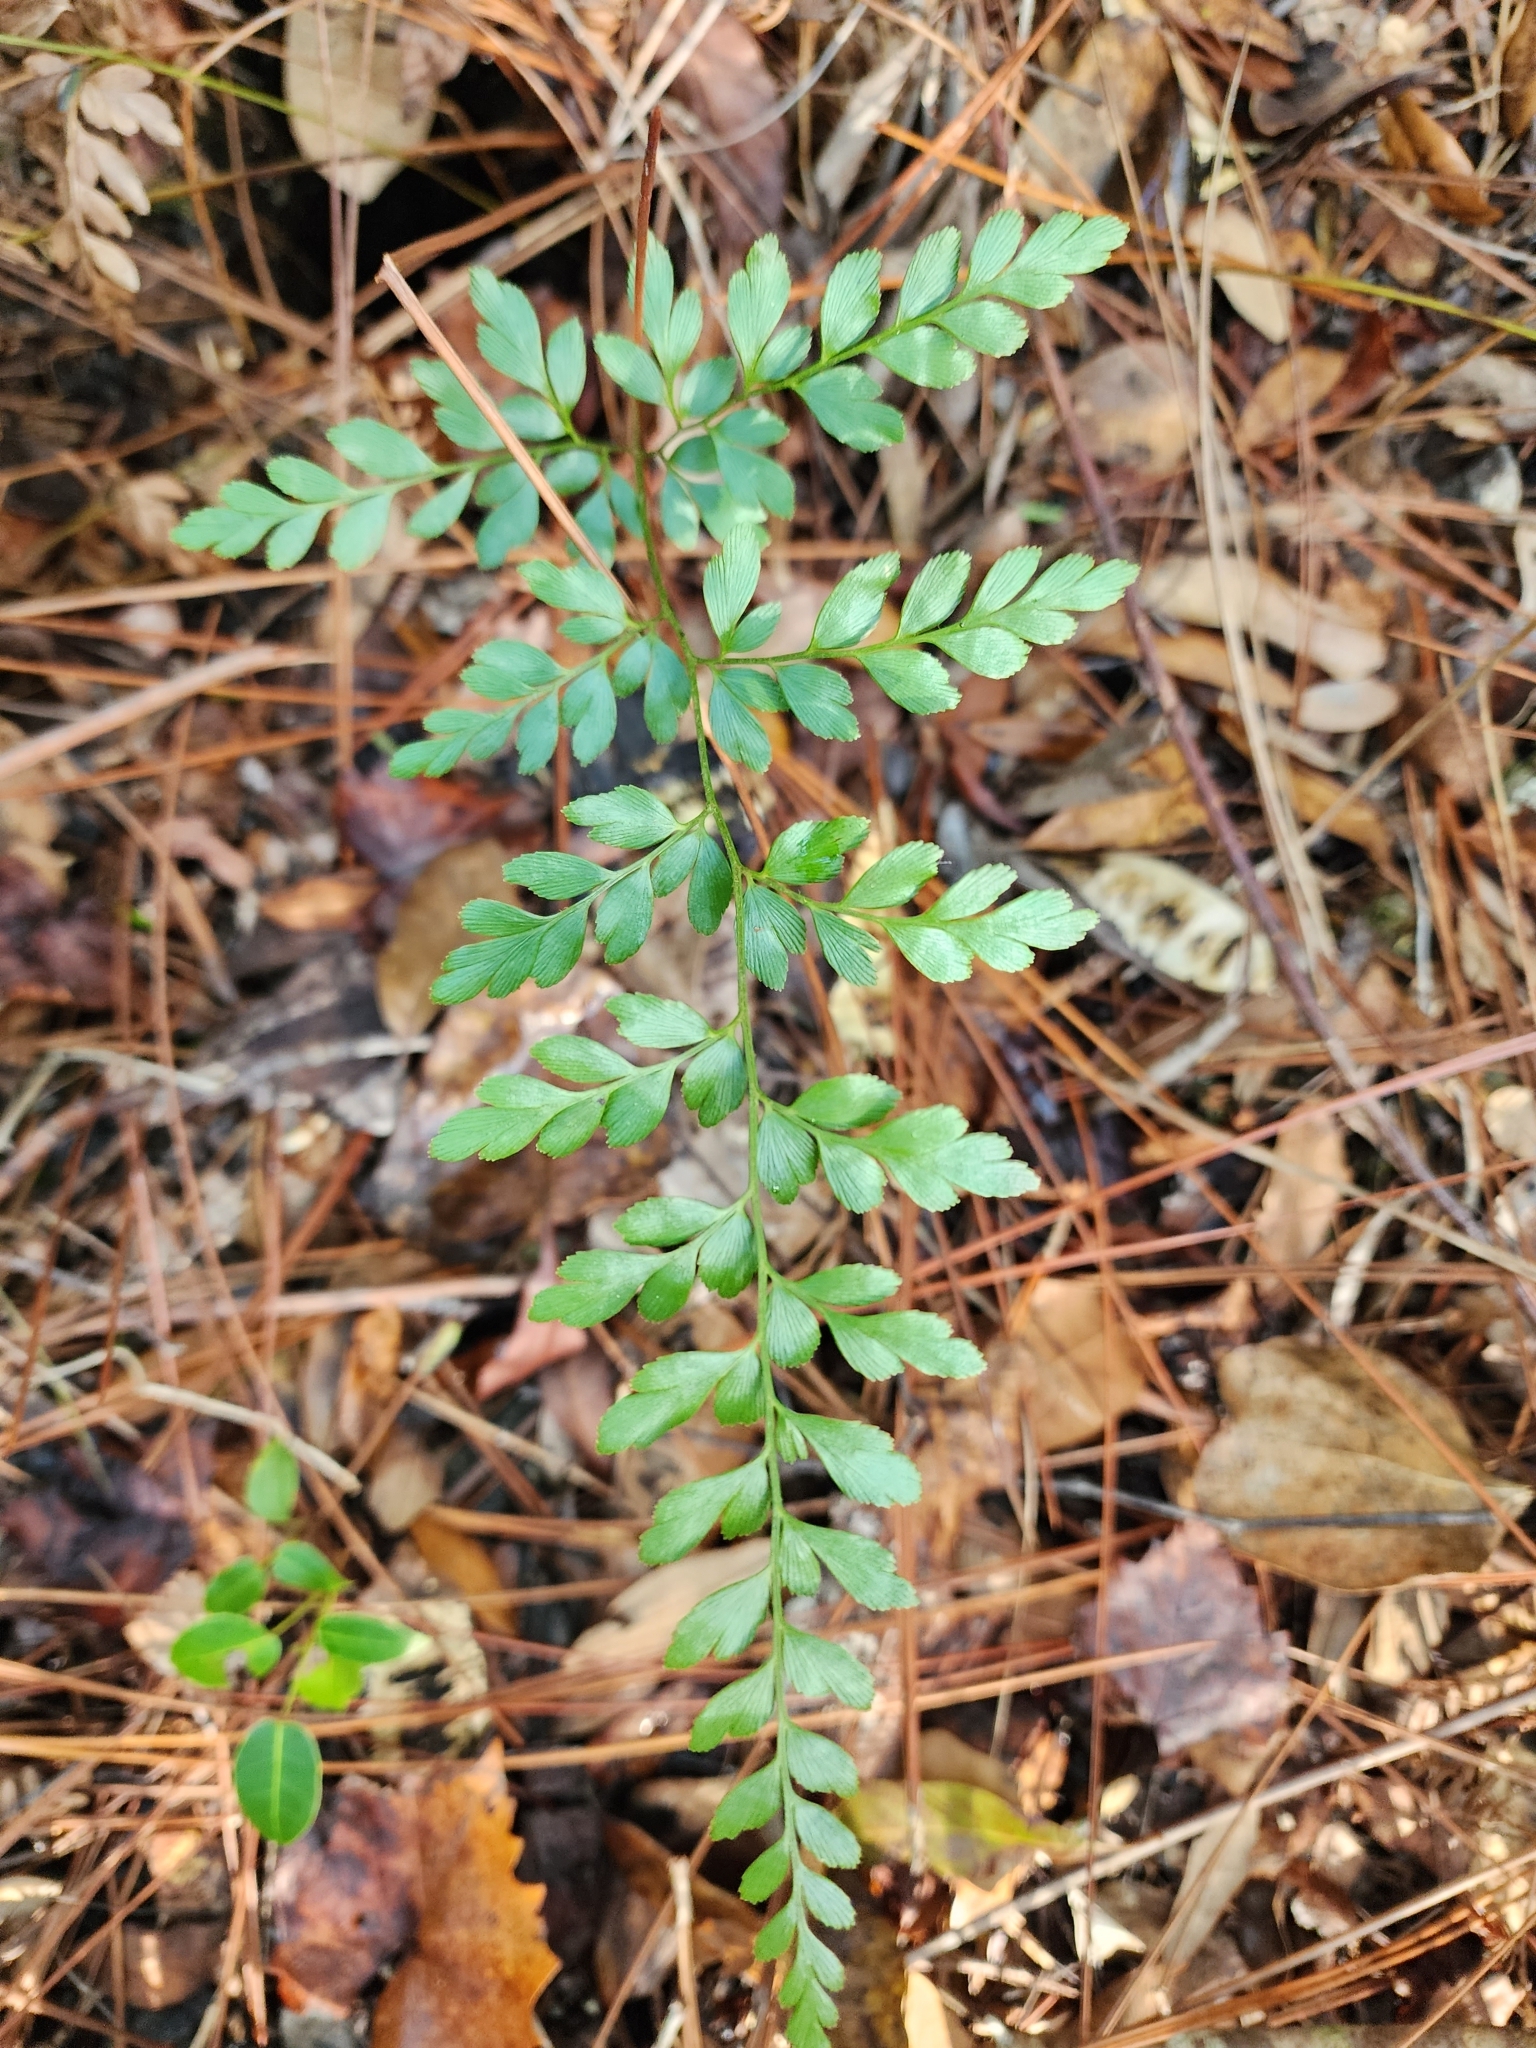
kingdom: Plantae
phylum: Tracheophyta
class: Polypodiopsida
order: Schizaeales
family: Anemiaceae
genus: Anemia
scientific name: Anemia adiantifolia
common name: Pine fern
